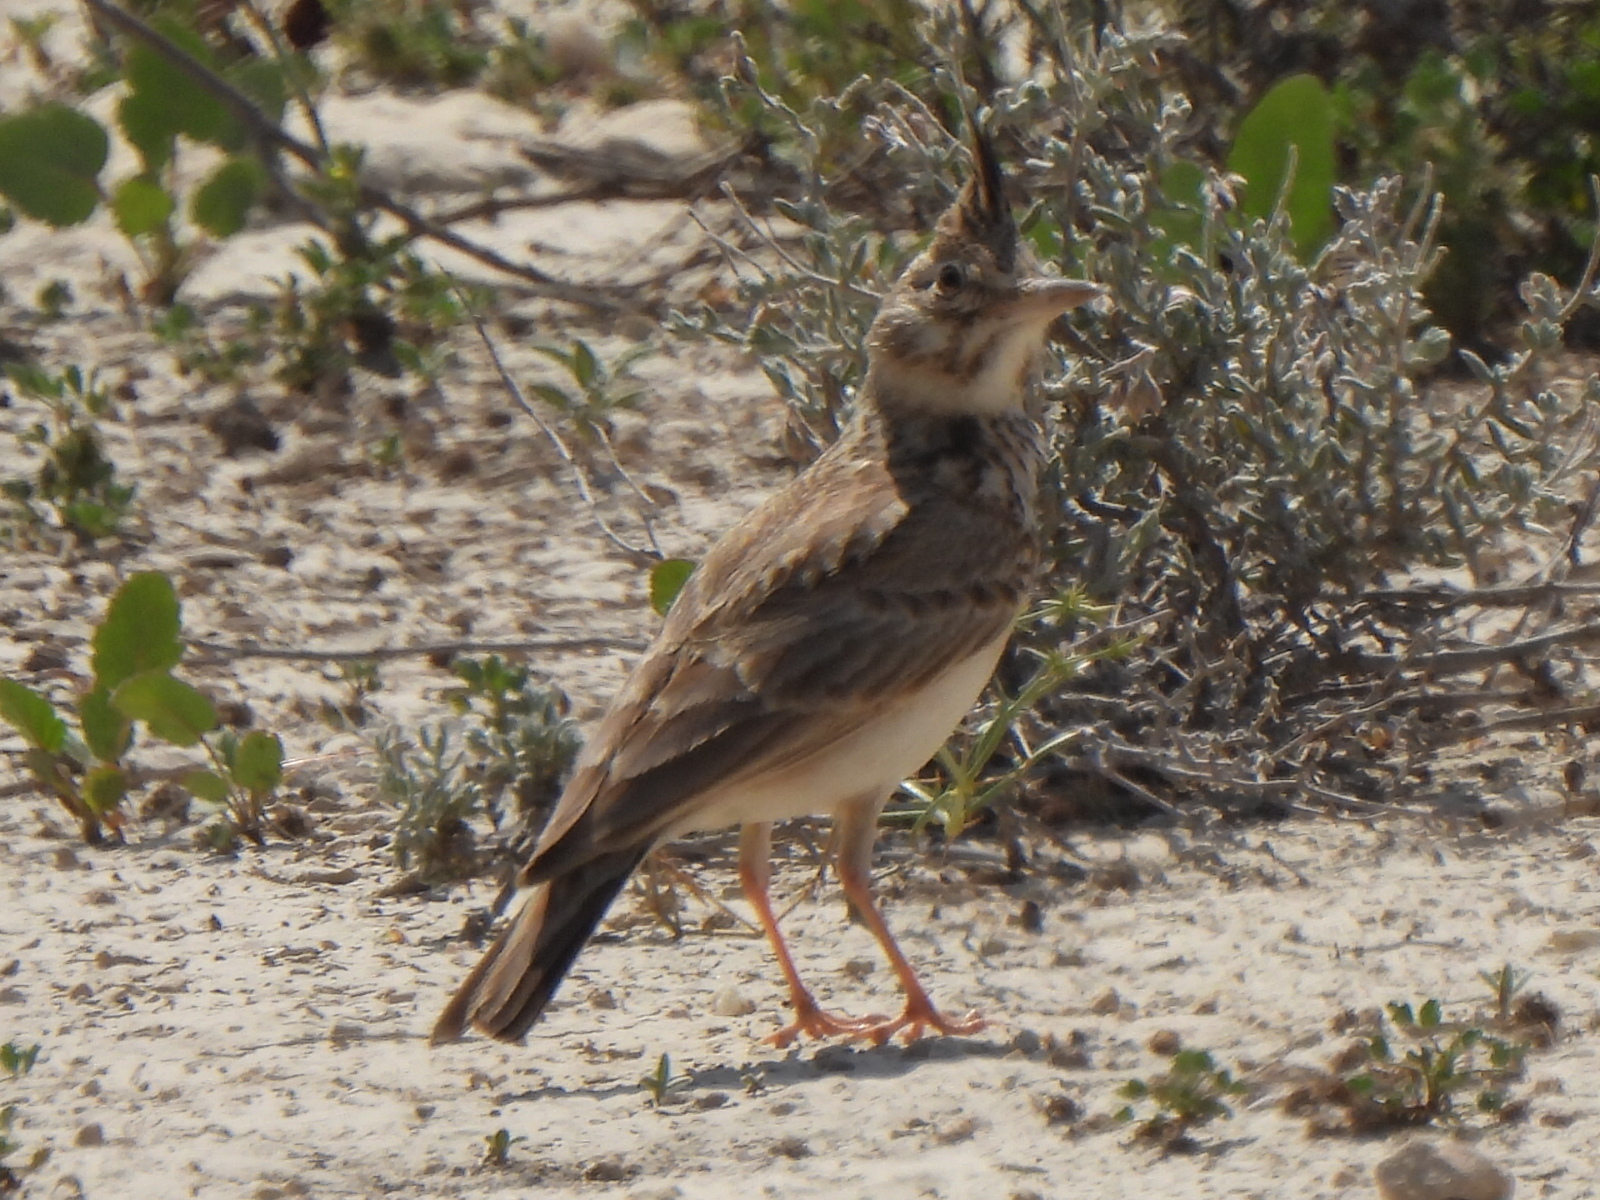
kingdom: Animalia
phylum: Chordata
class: Aves
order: Passeriformes
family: Alaudidae
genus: Galerida
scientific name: Galerida cristata
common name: Crested lark
